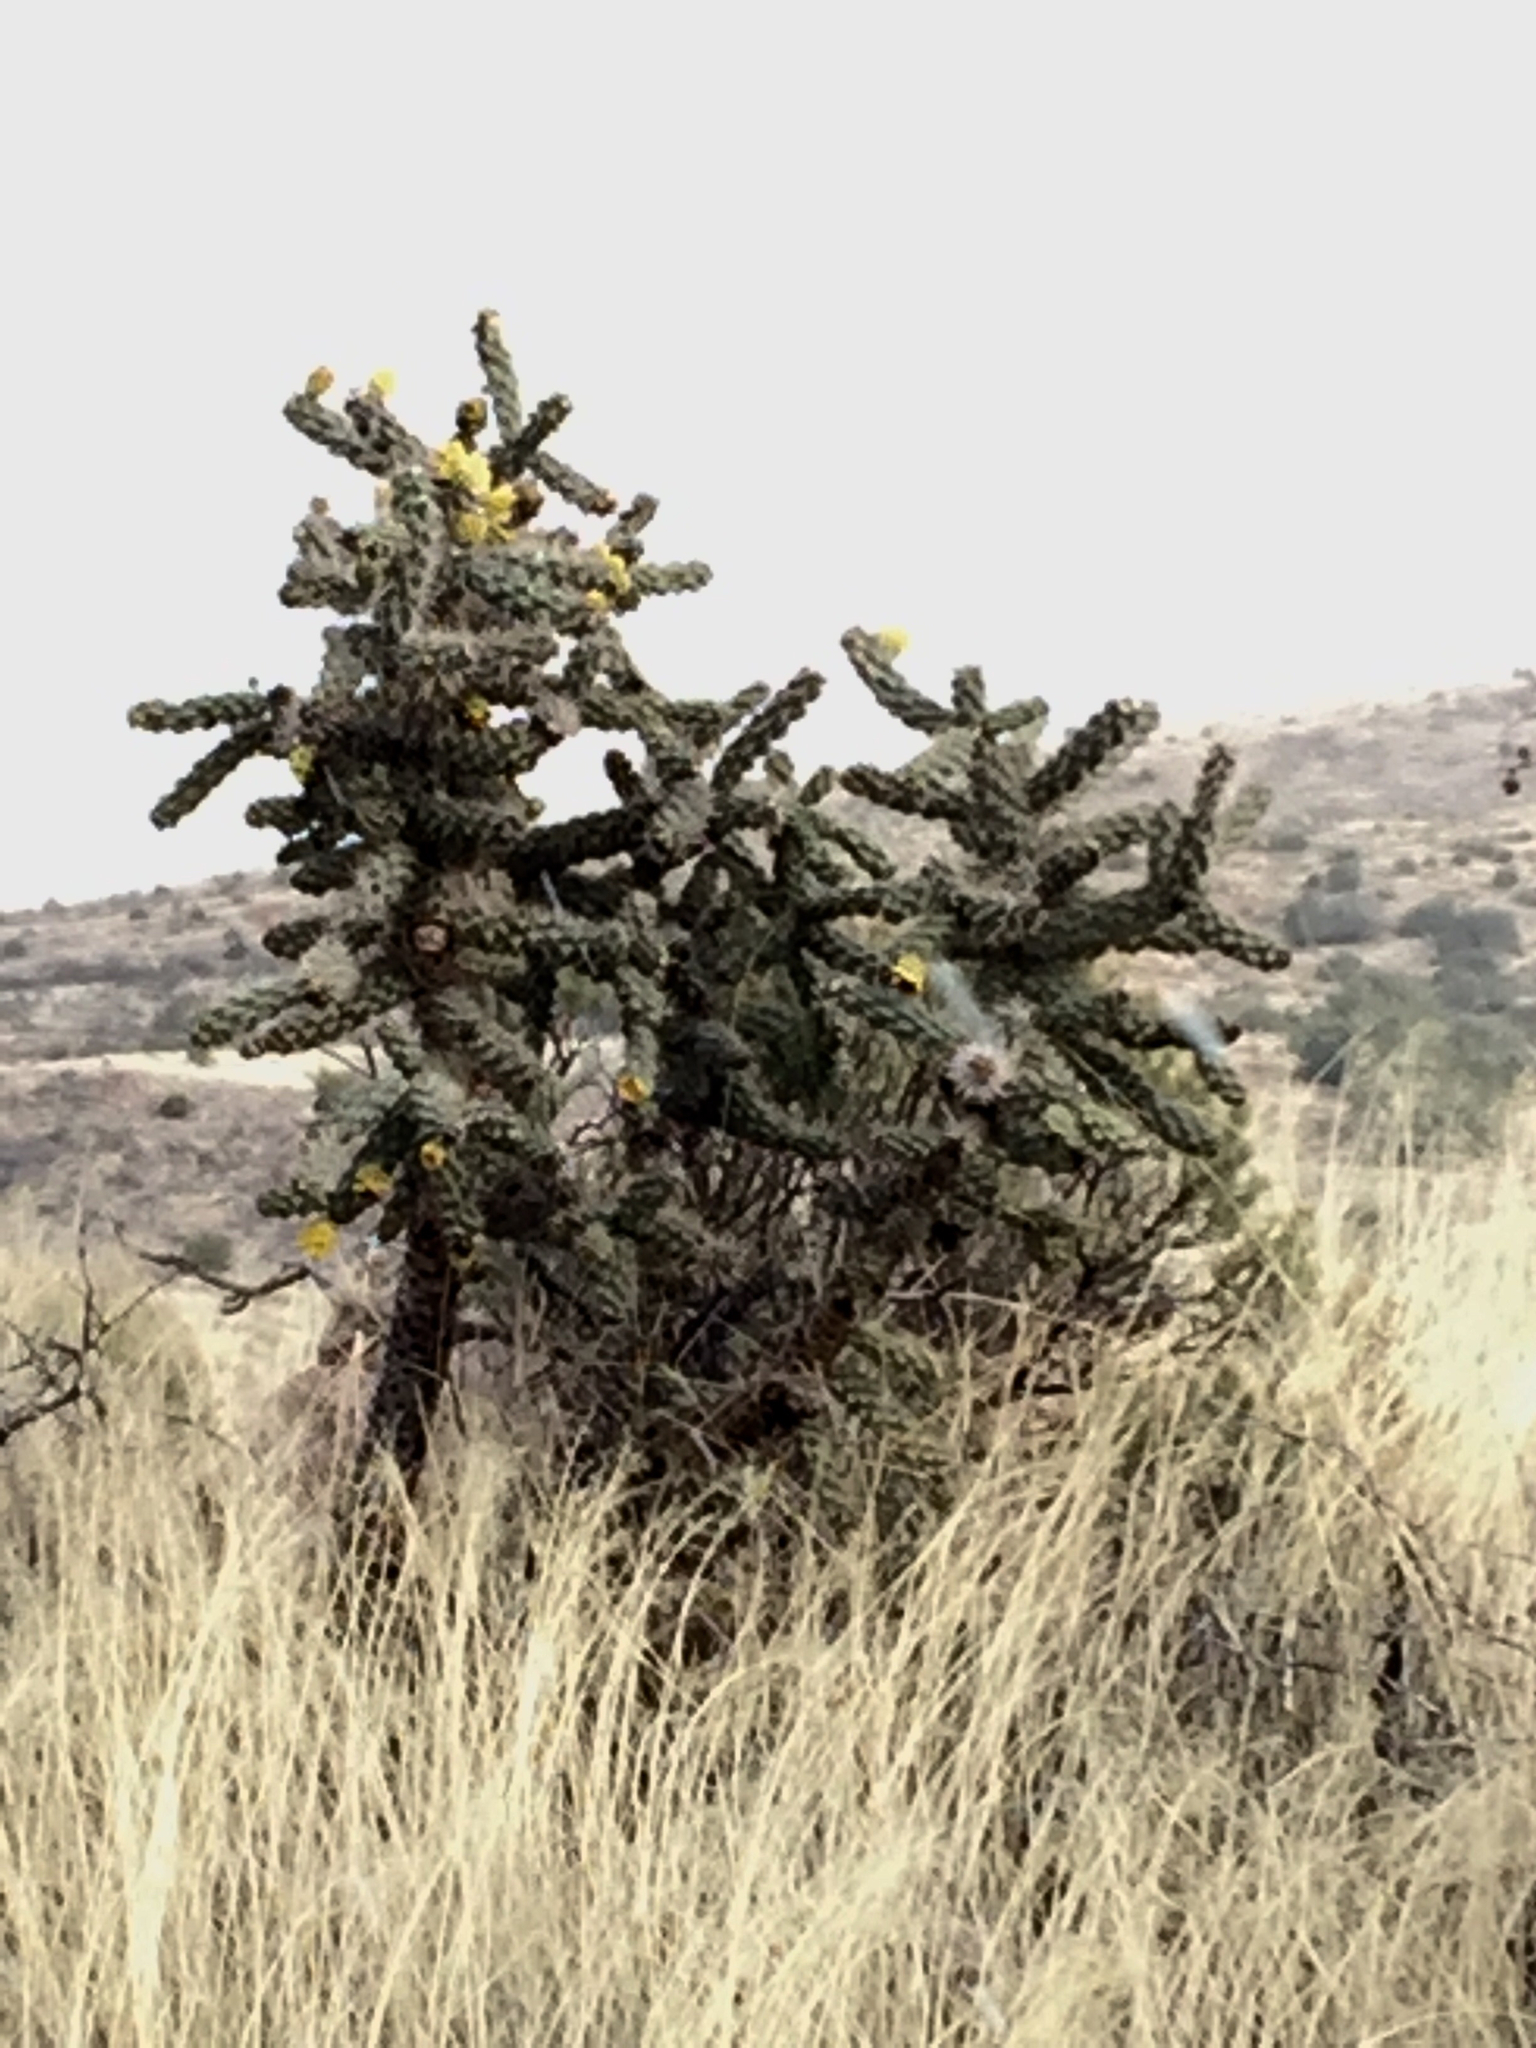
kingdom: Plantae
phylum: Tracheophyta
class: Magnoliopsida
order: Caryophyllales
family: Cactaceae
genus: Cylindropuntia
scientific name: Cylindropuntia imbricata
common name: Candelabrum cactus
